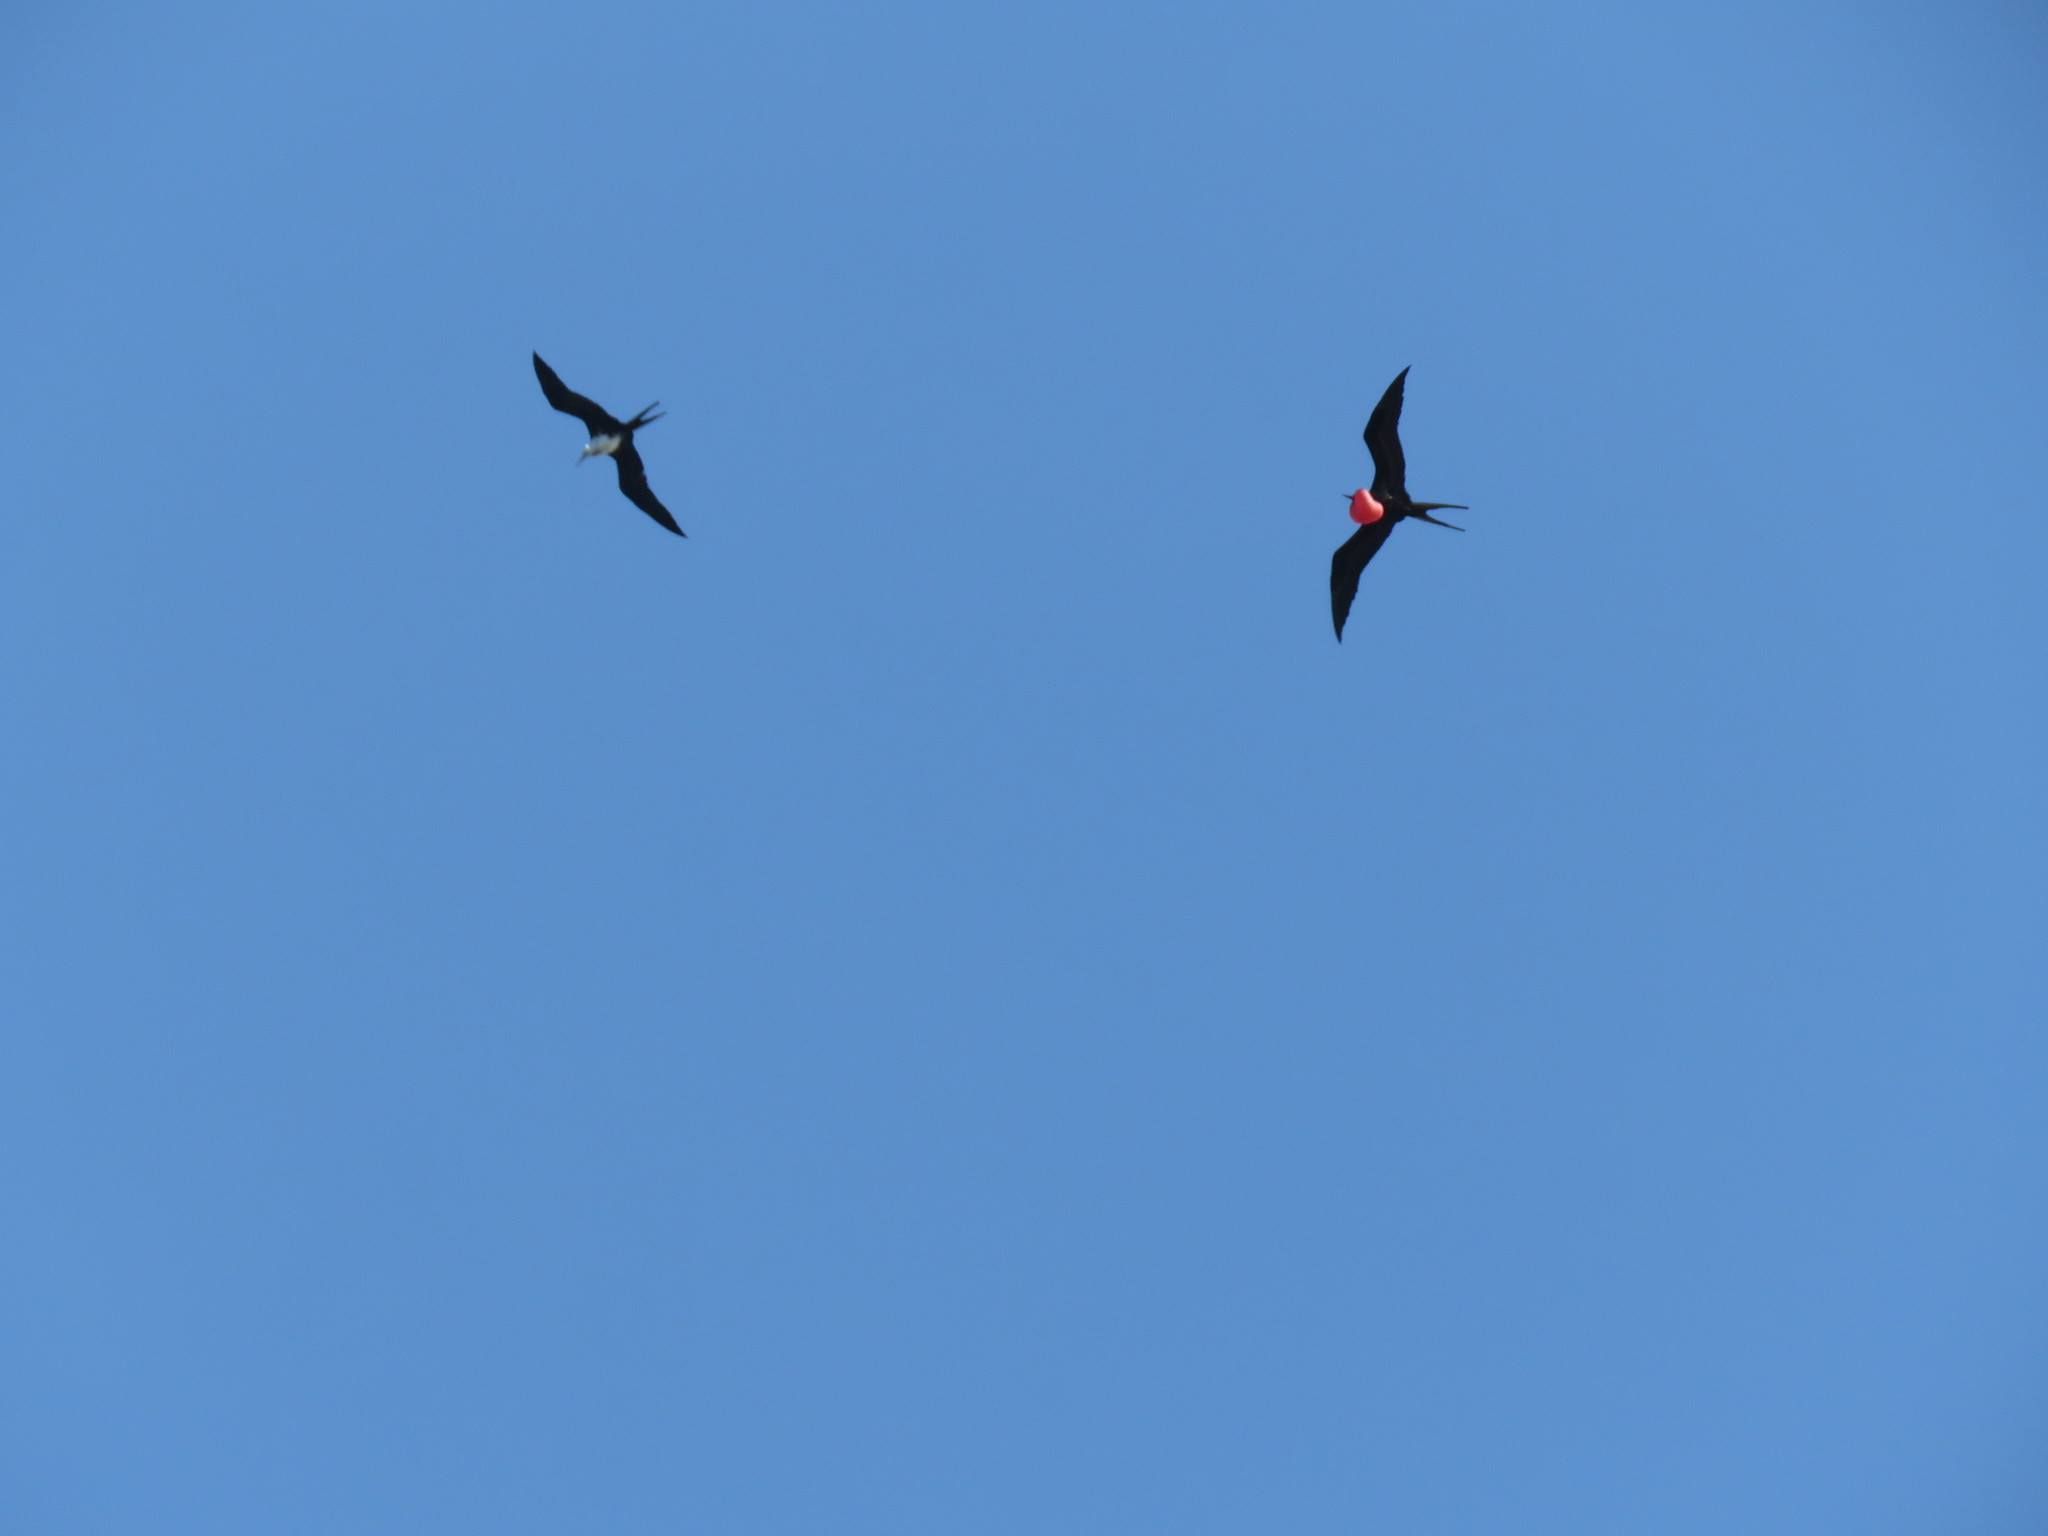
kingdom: Animalia
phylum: Chordata
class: Aves
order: Suliformes
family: Fregatidae
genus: Fregata
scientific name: Fregata magnificens
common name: Magnificent frigatebird
